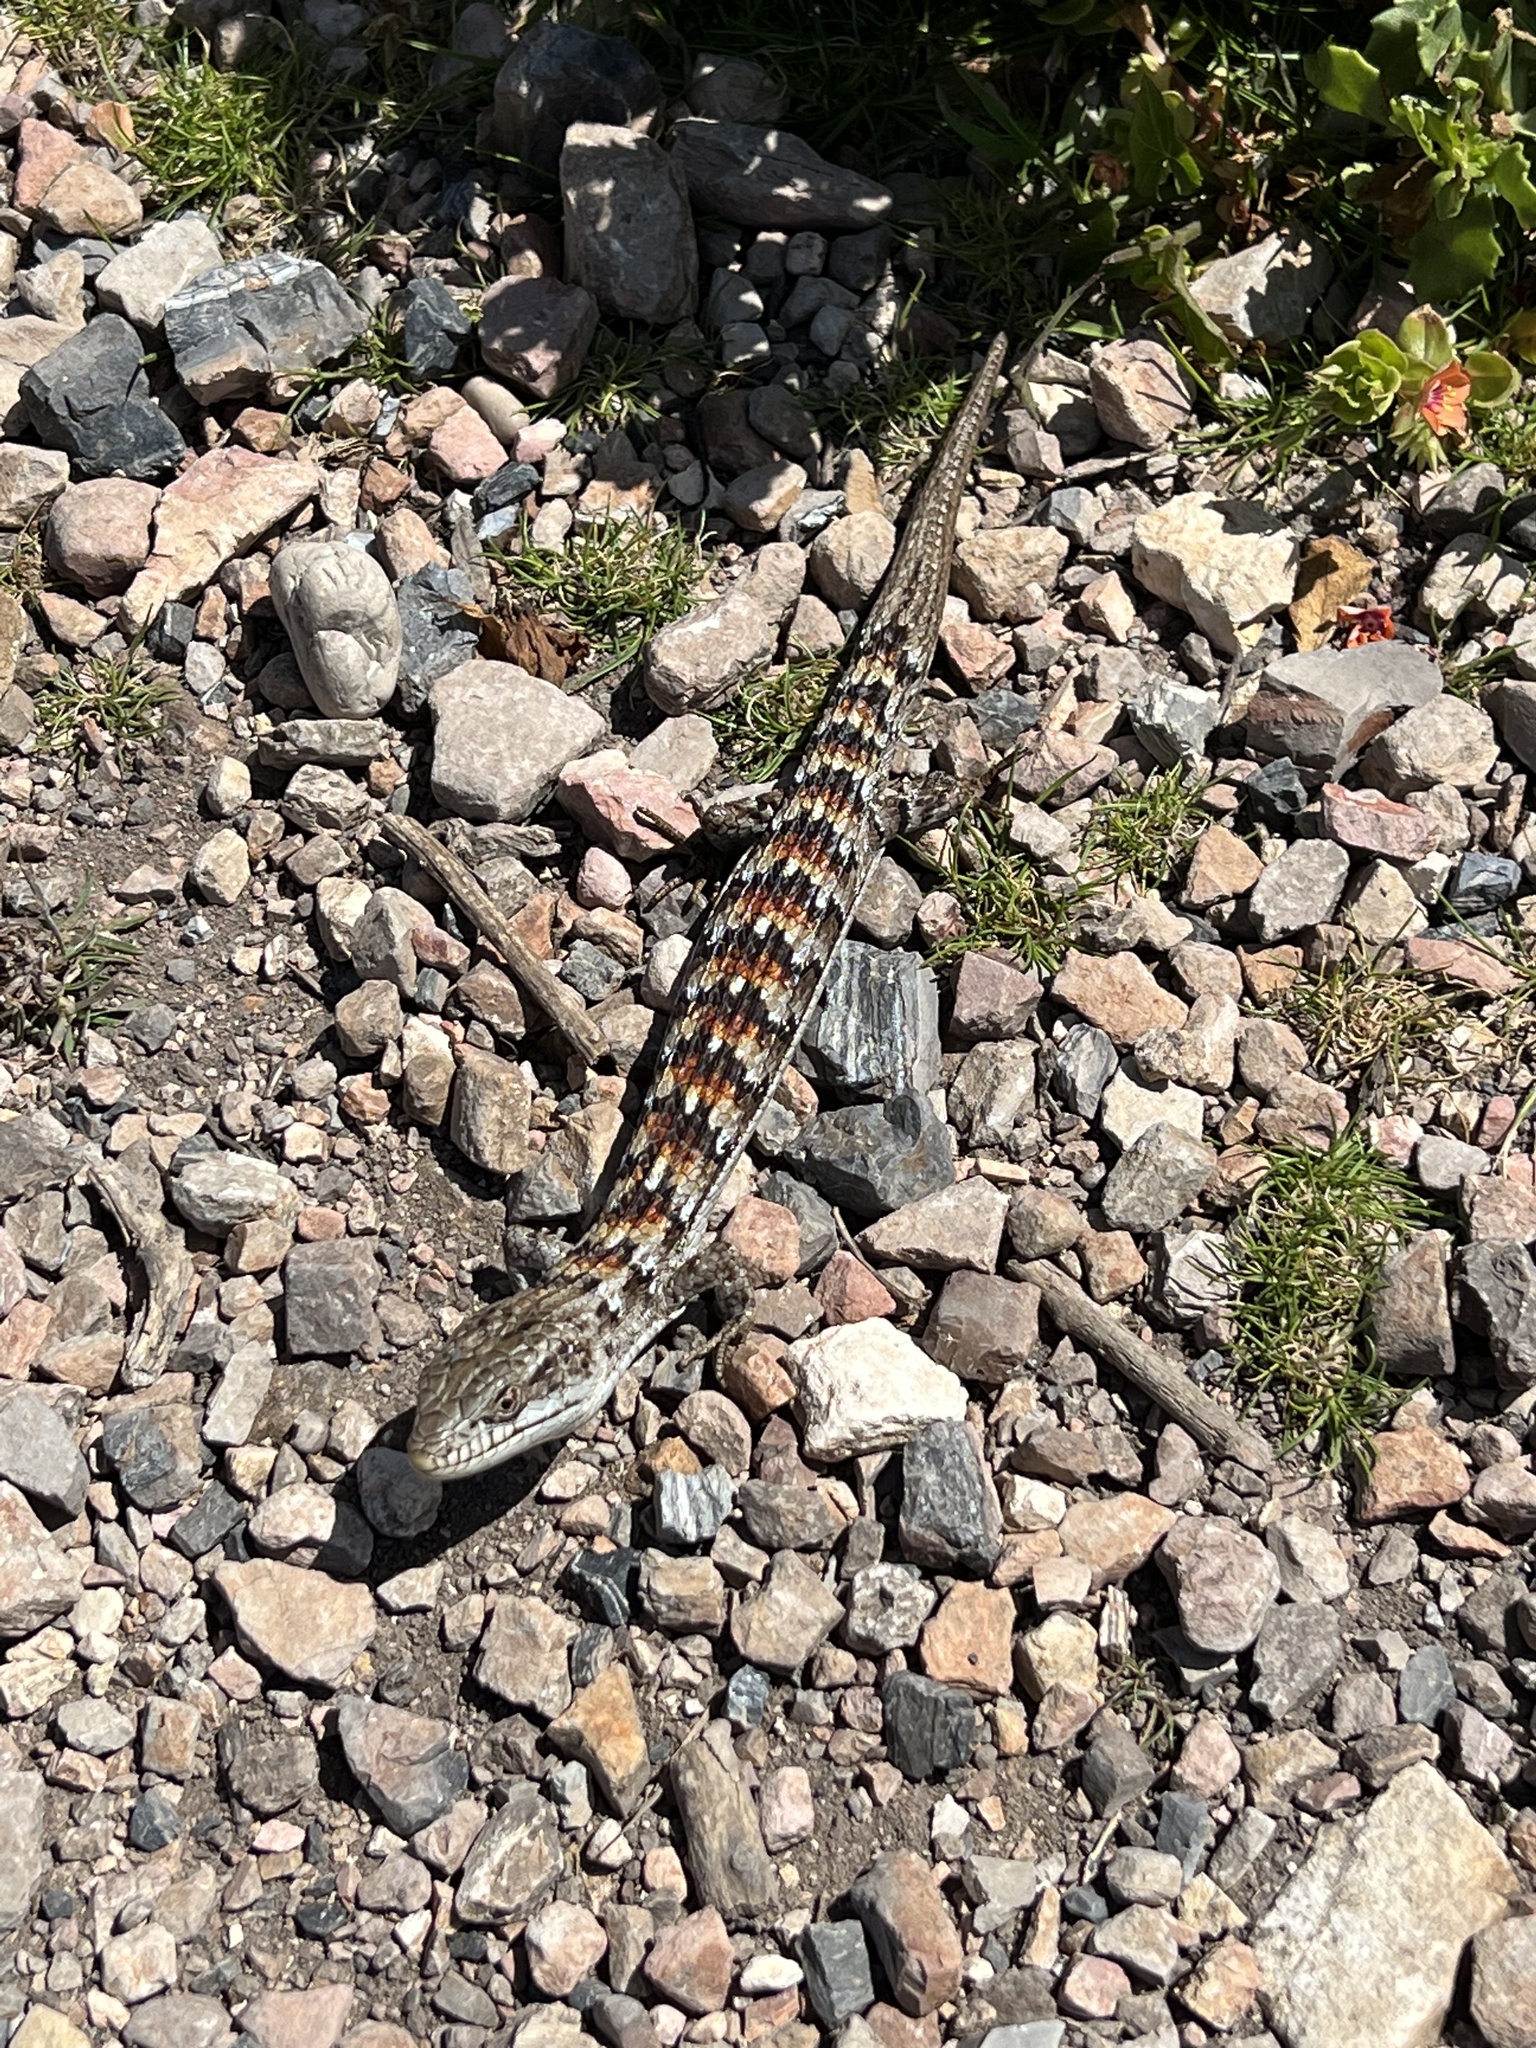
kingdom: Animalia
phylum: Chordata
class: Squamata
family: Anguidae
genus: Elgaria
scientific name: Elgaria multicarinata
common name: Southern alligator lizard
